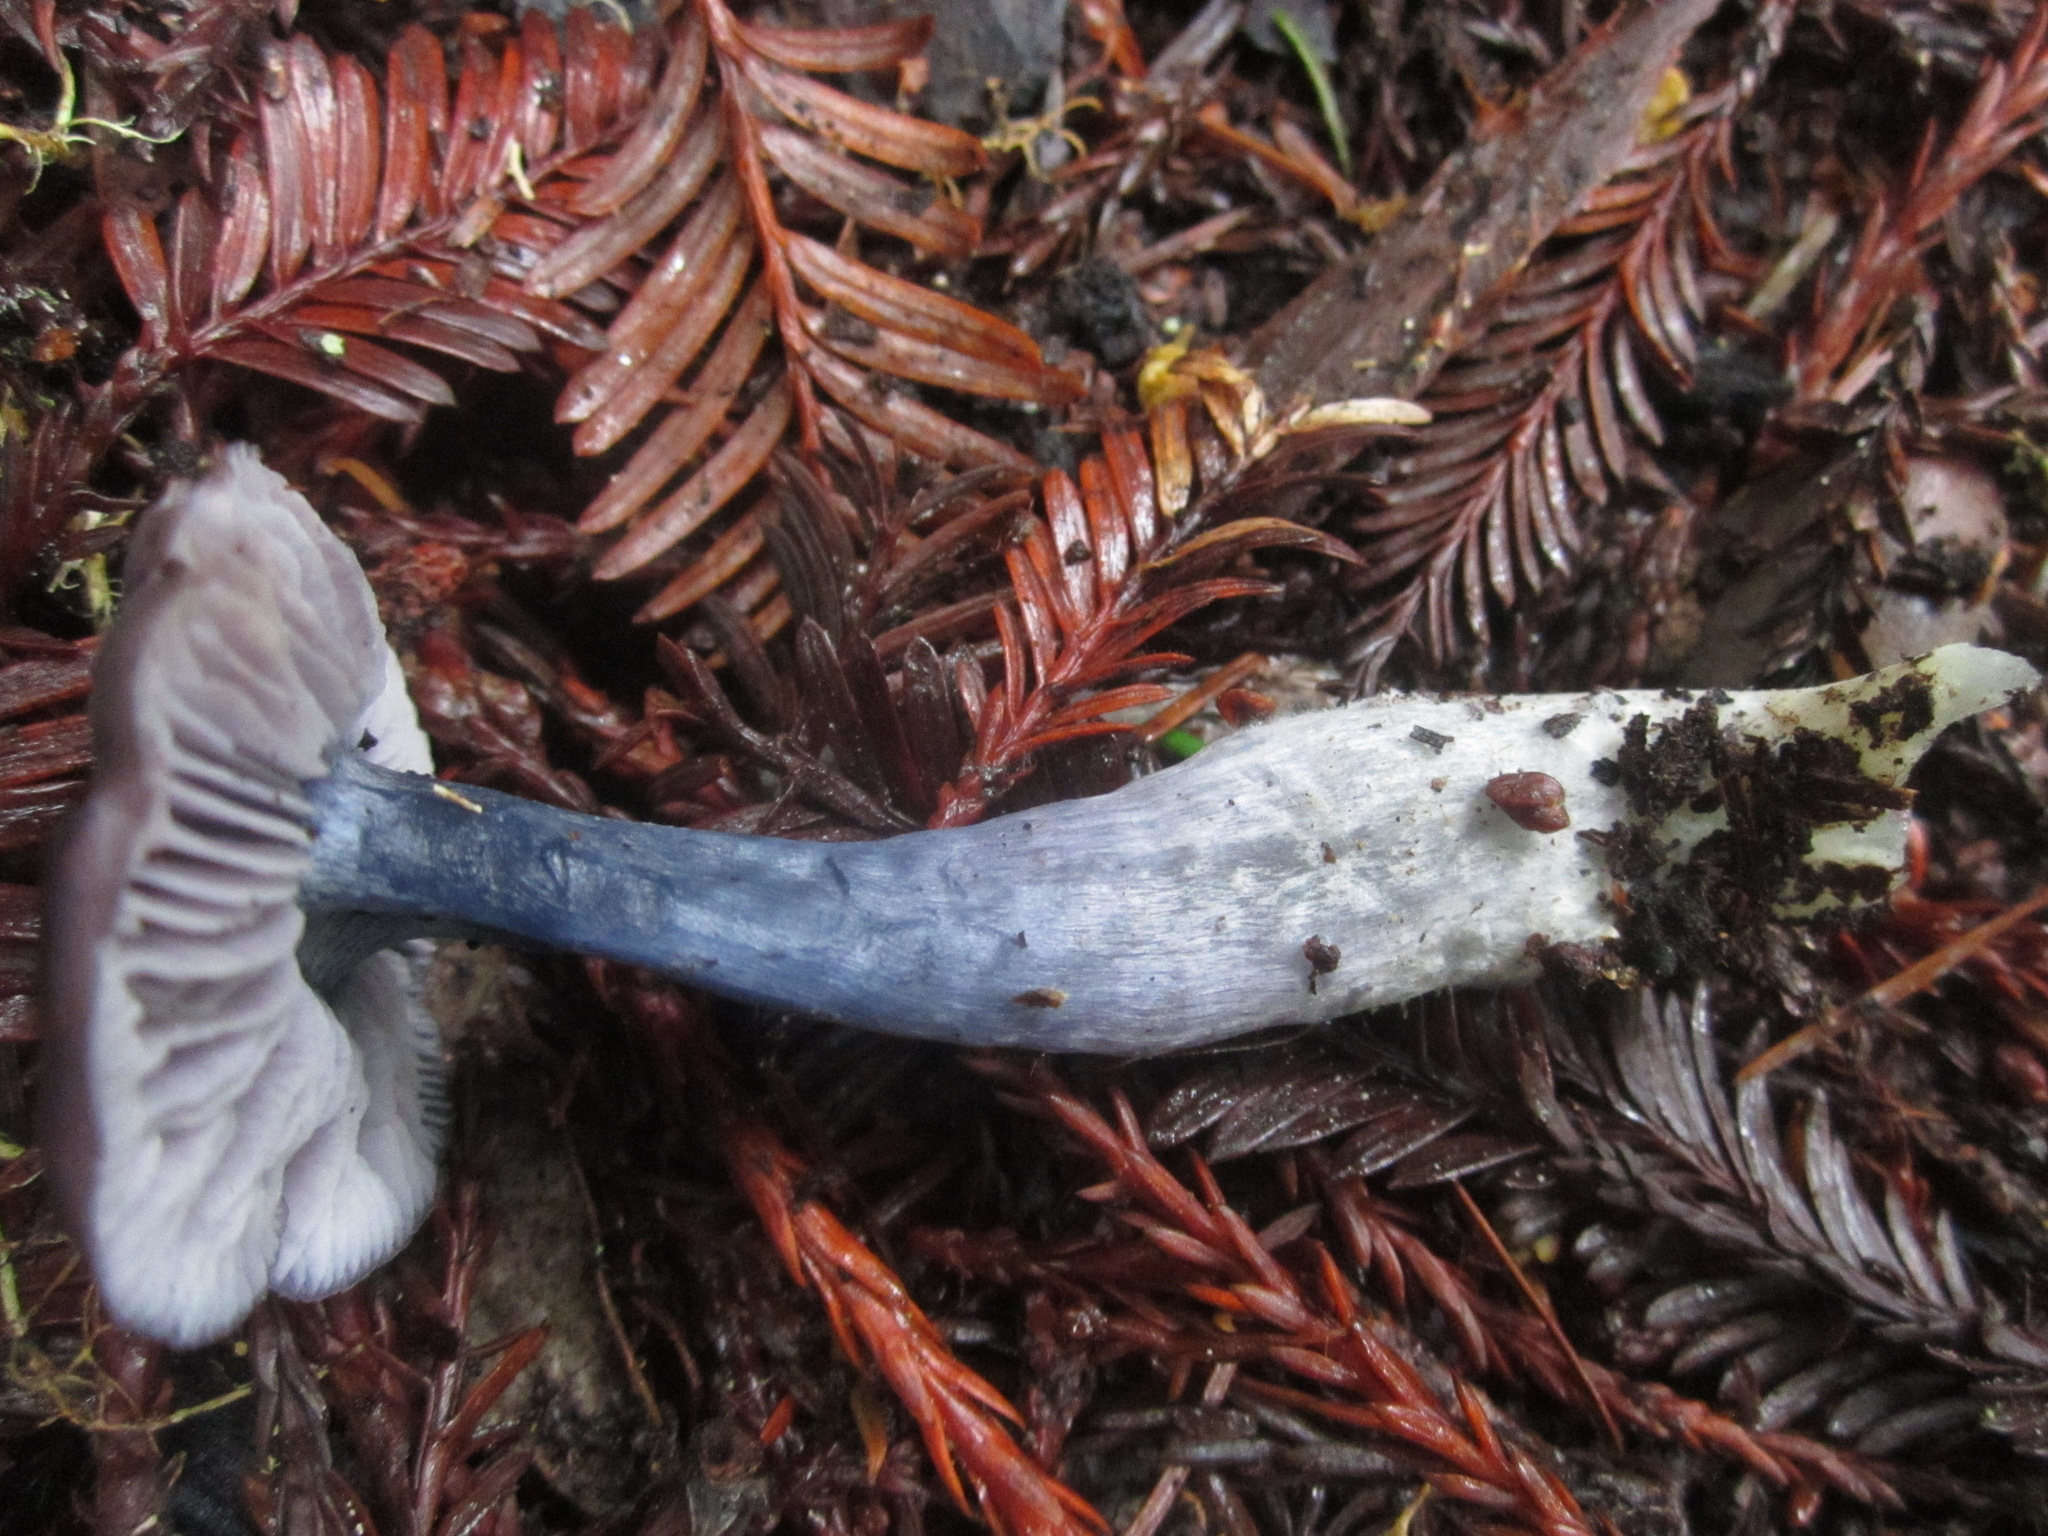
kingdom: Fungi
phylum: Basidiomycota
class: Agaricomycetes
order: Agaricales
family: Entolomataceae
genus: Entocybe
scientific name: Entocybe trachyospora
